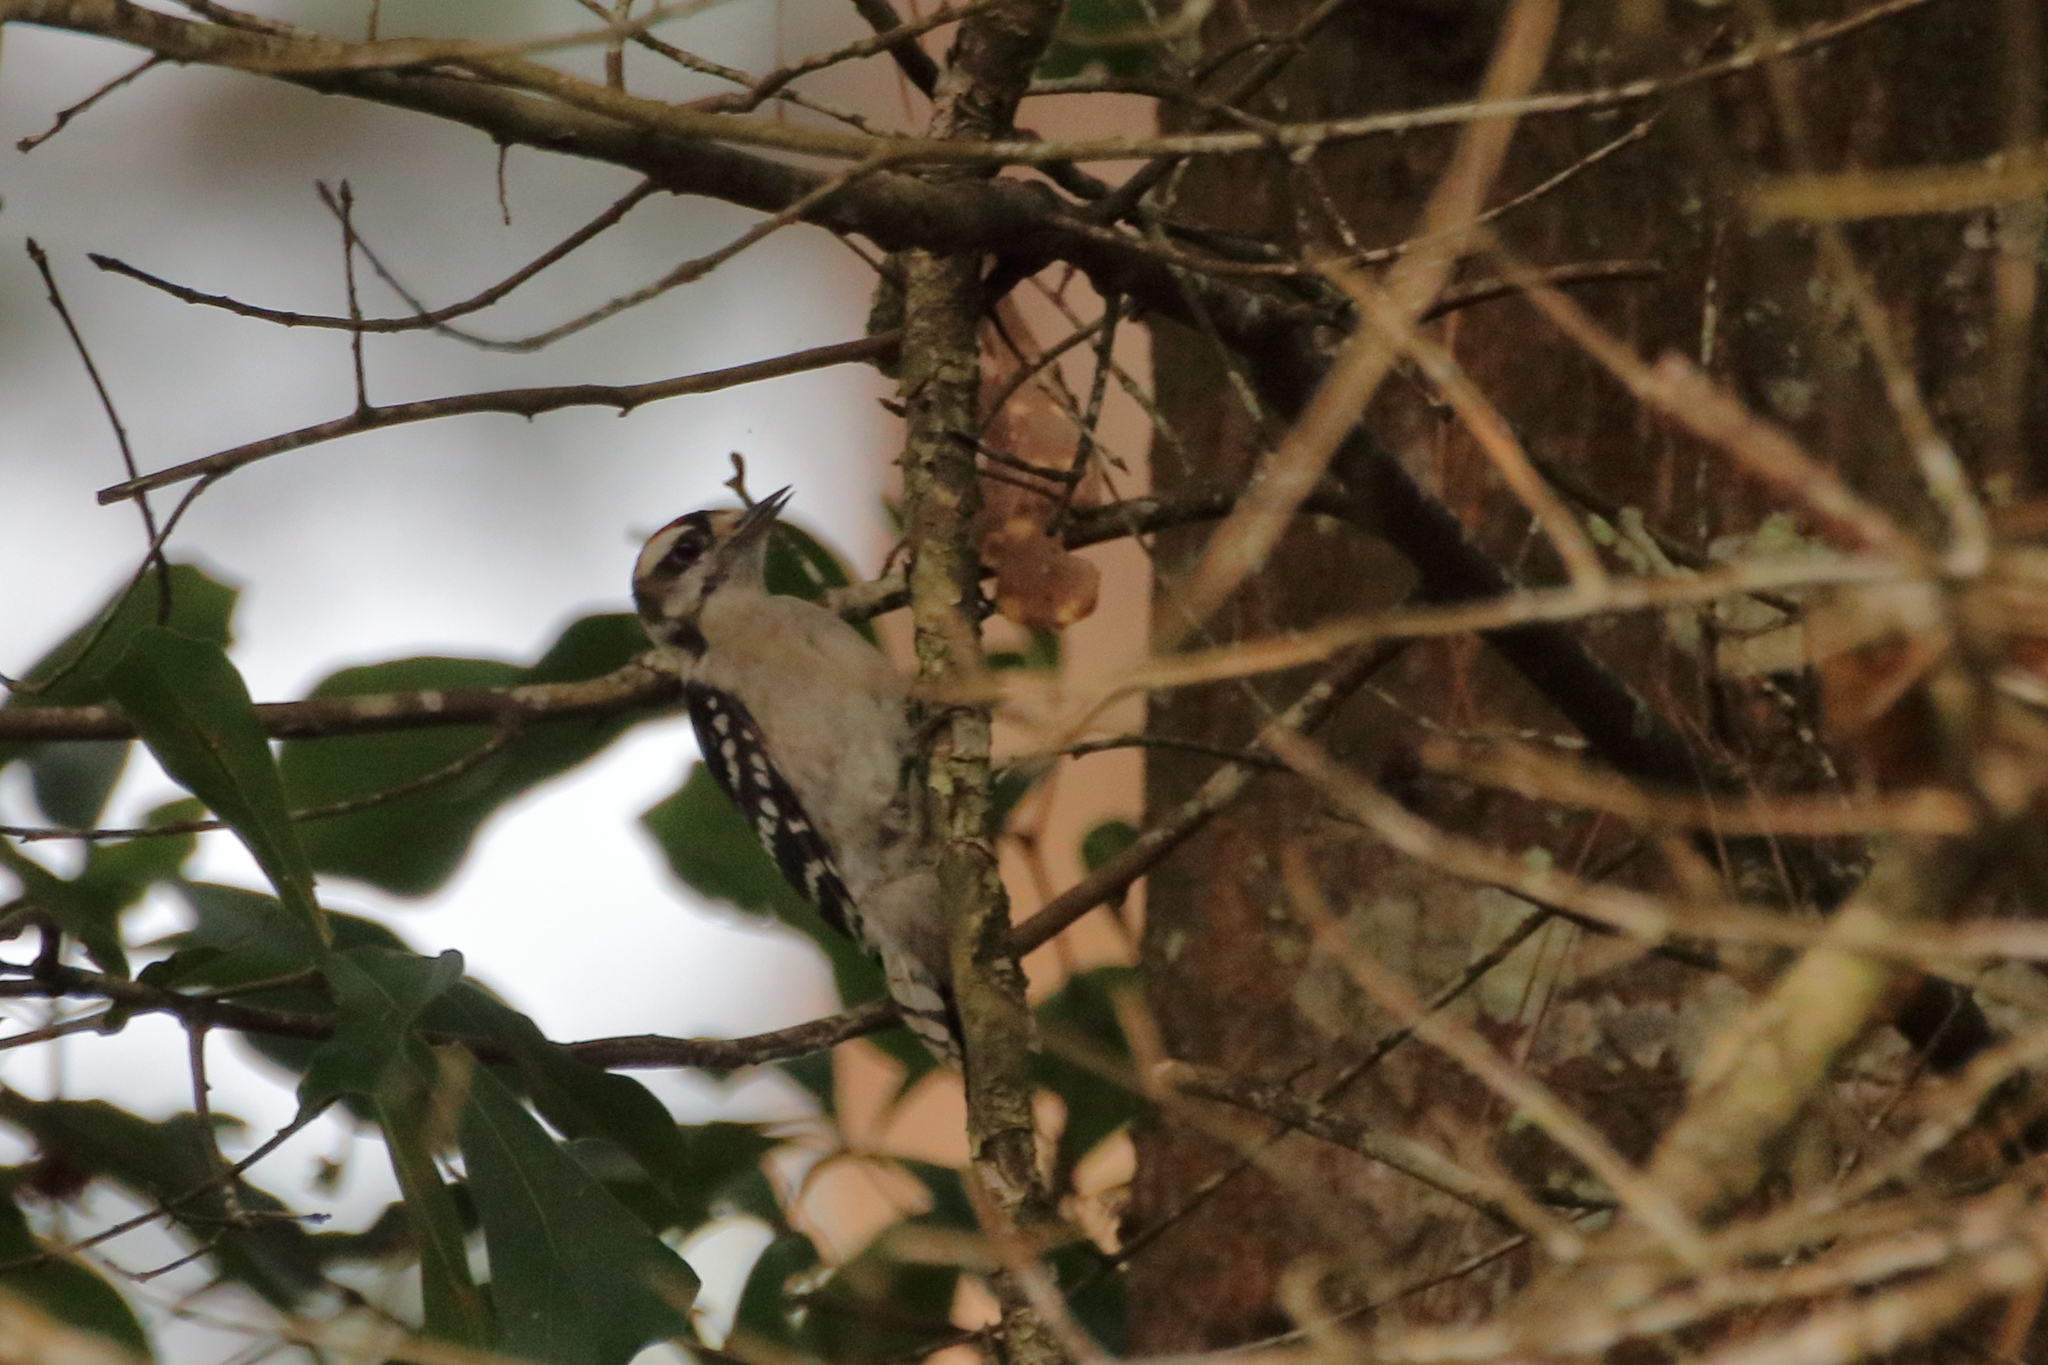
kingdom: Animalia
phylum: Chordata
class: Aves
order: Piciformes
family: Picidae
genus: Dryobates
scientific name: Dryobates pubescens
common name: Downy woodpecker
